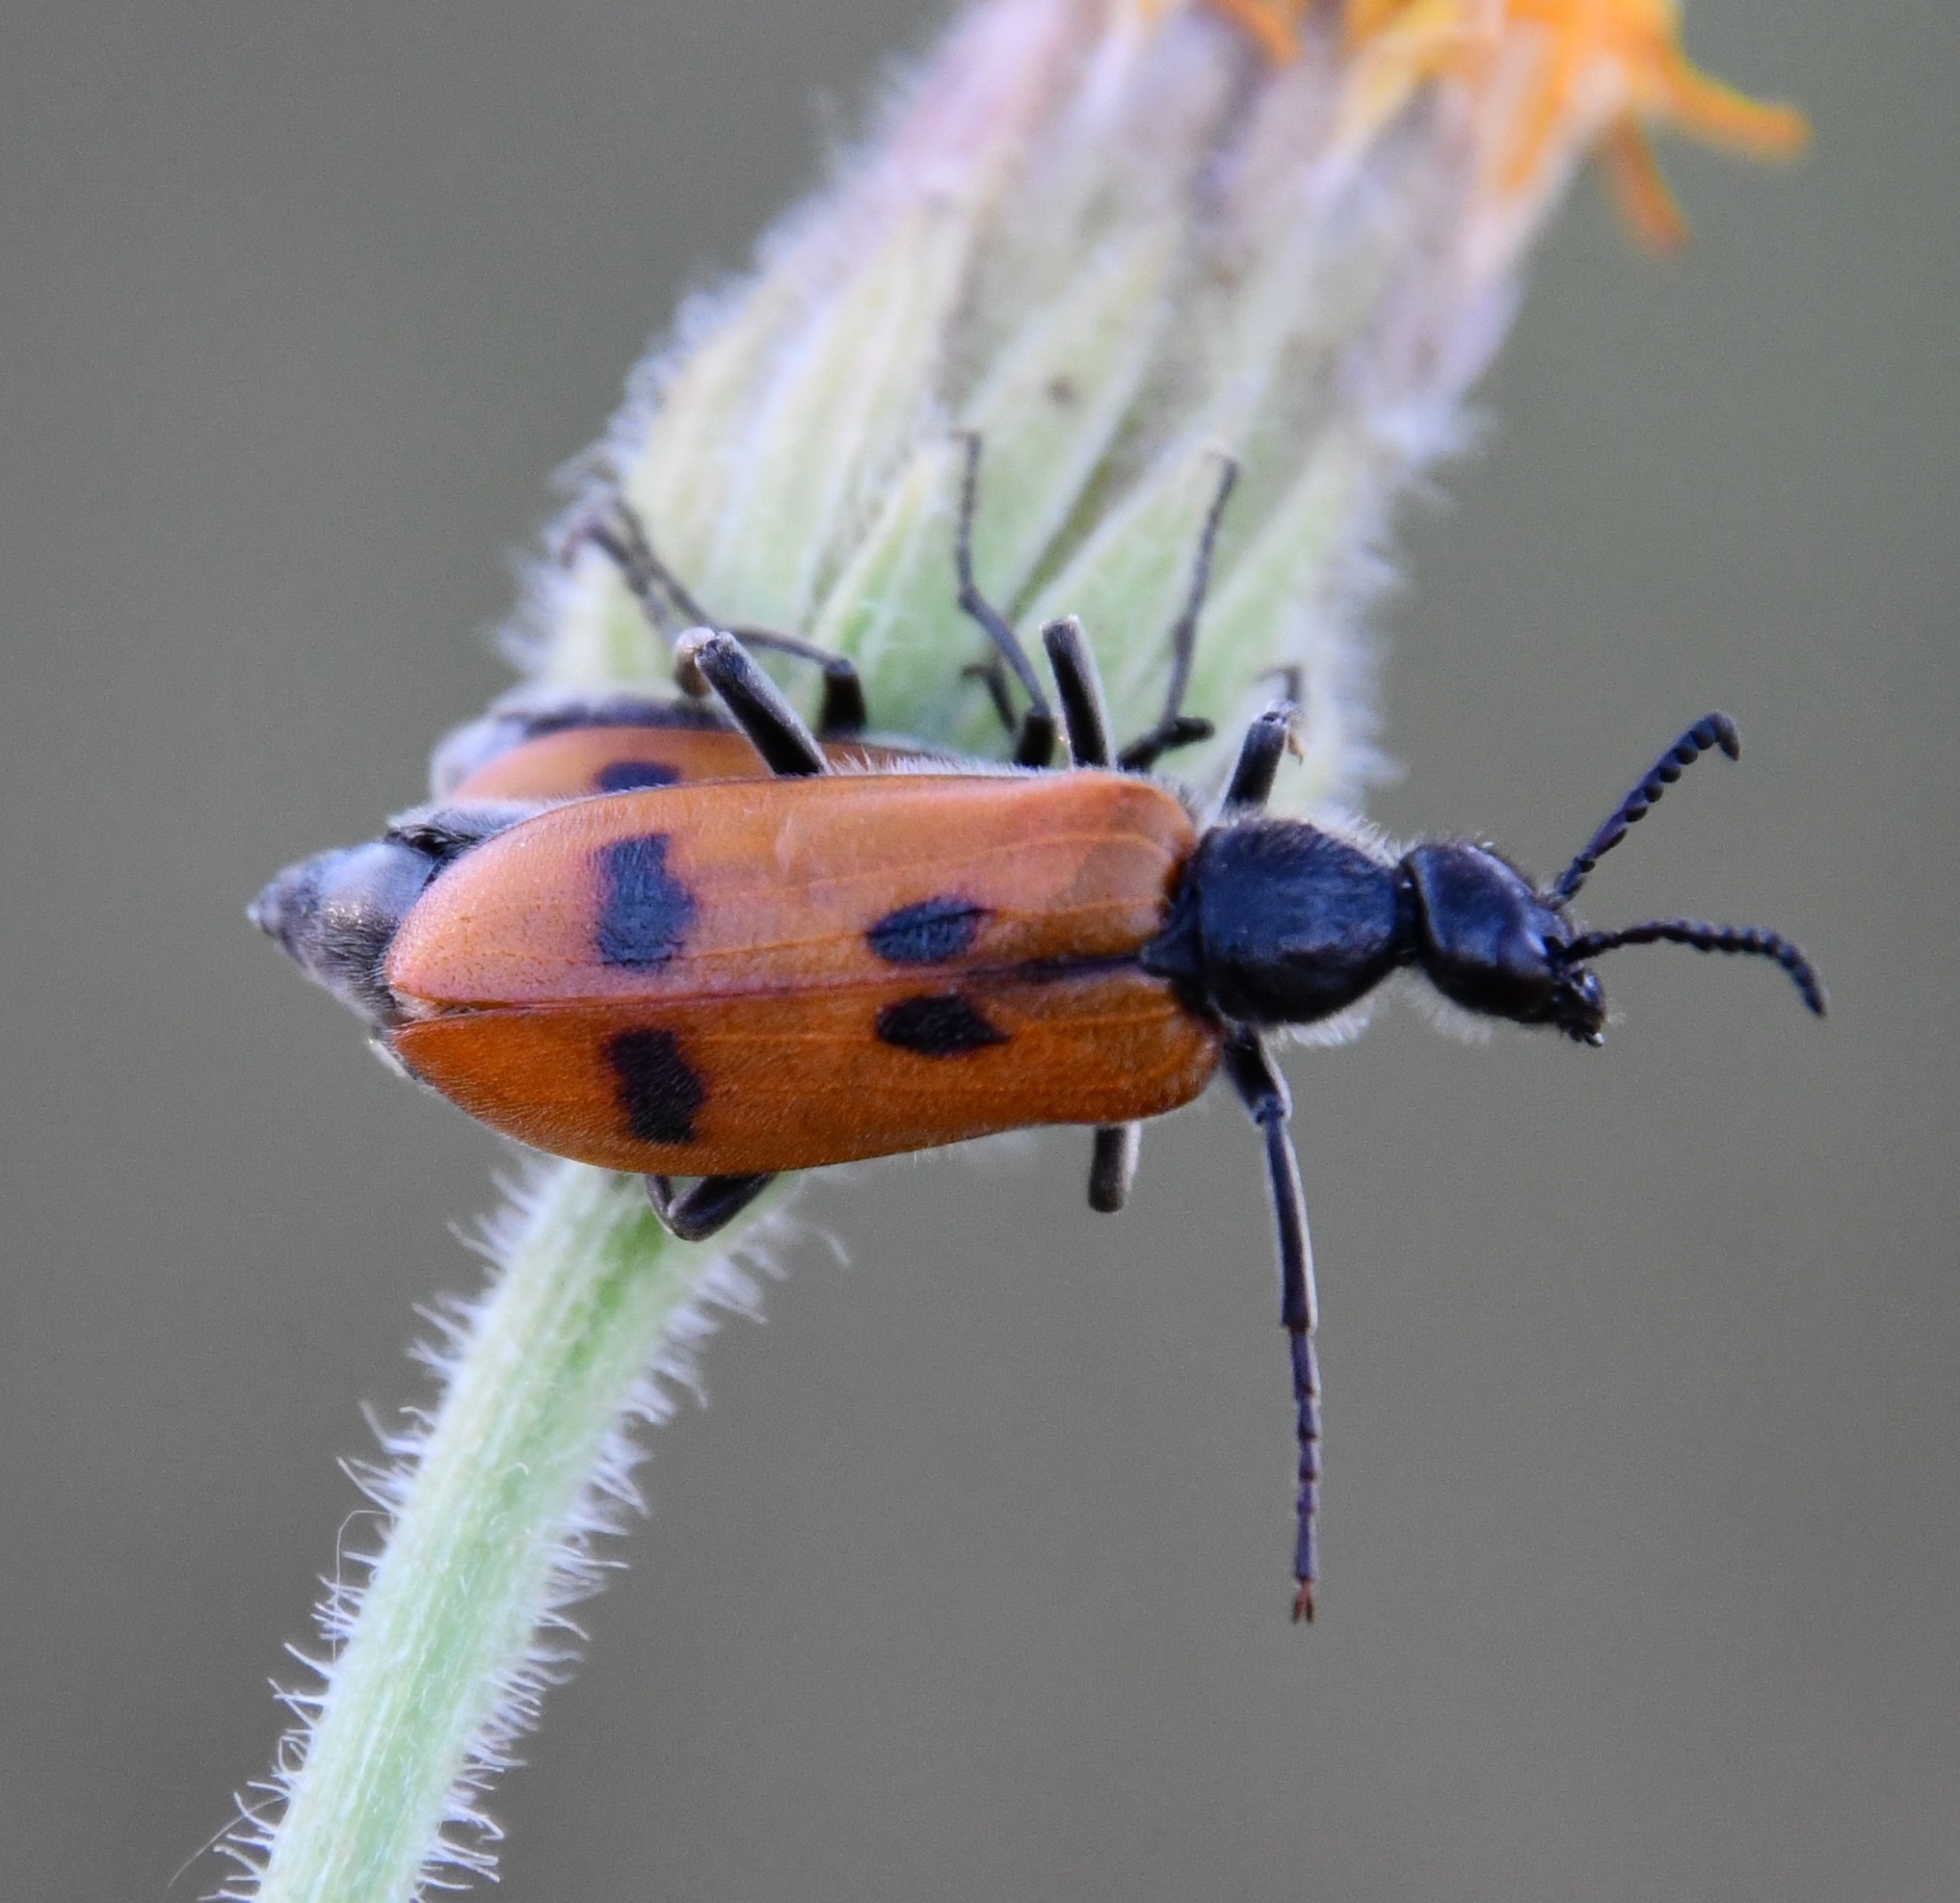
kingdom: Animalia
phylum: Arthropoda
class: Insecta
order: Coleoptera
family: Meloidae
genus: Lydus
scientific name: Lydus trimaculatus
